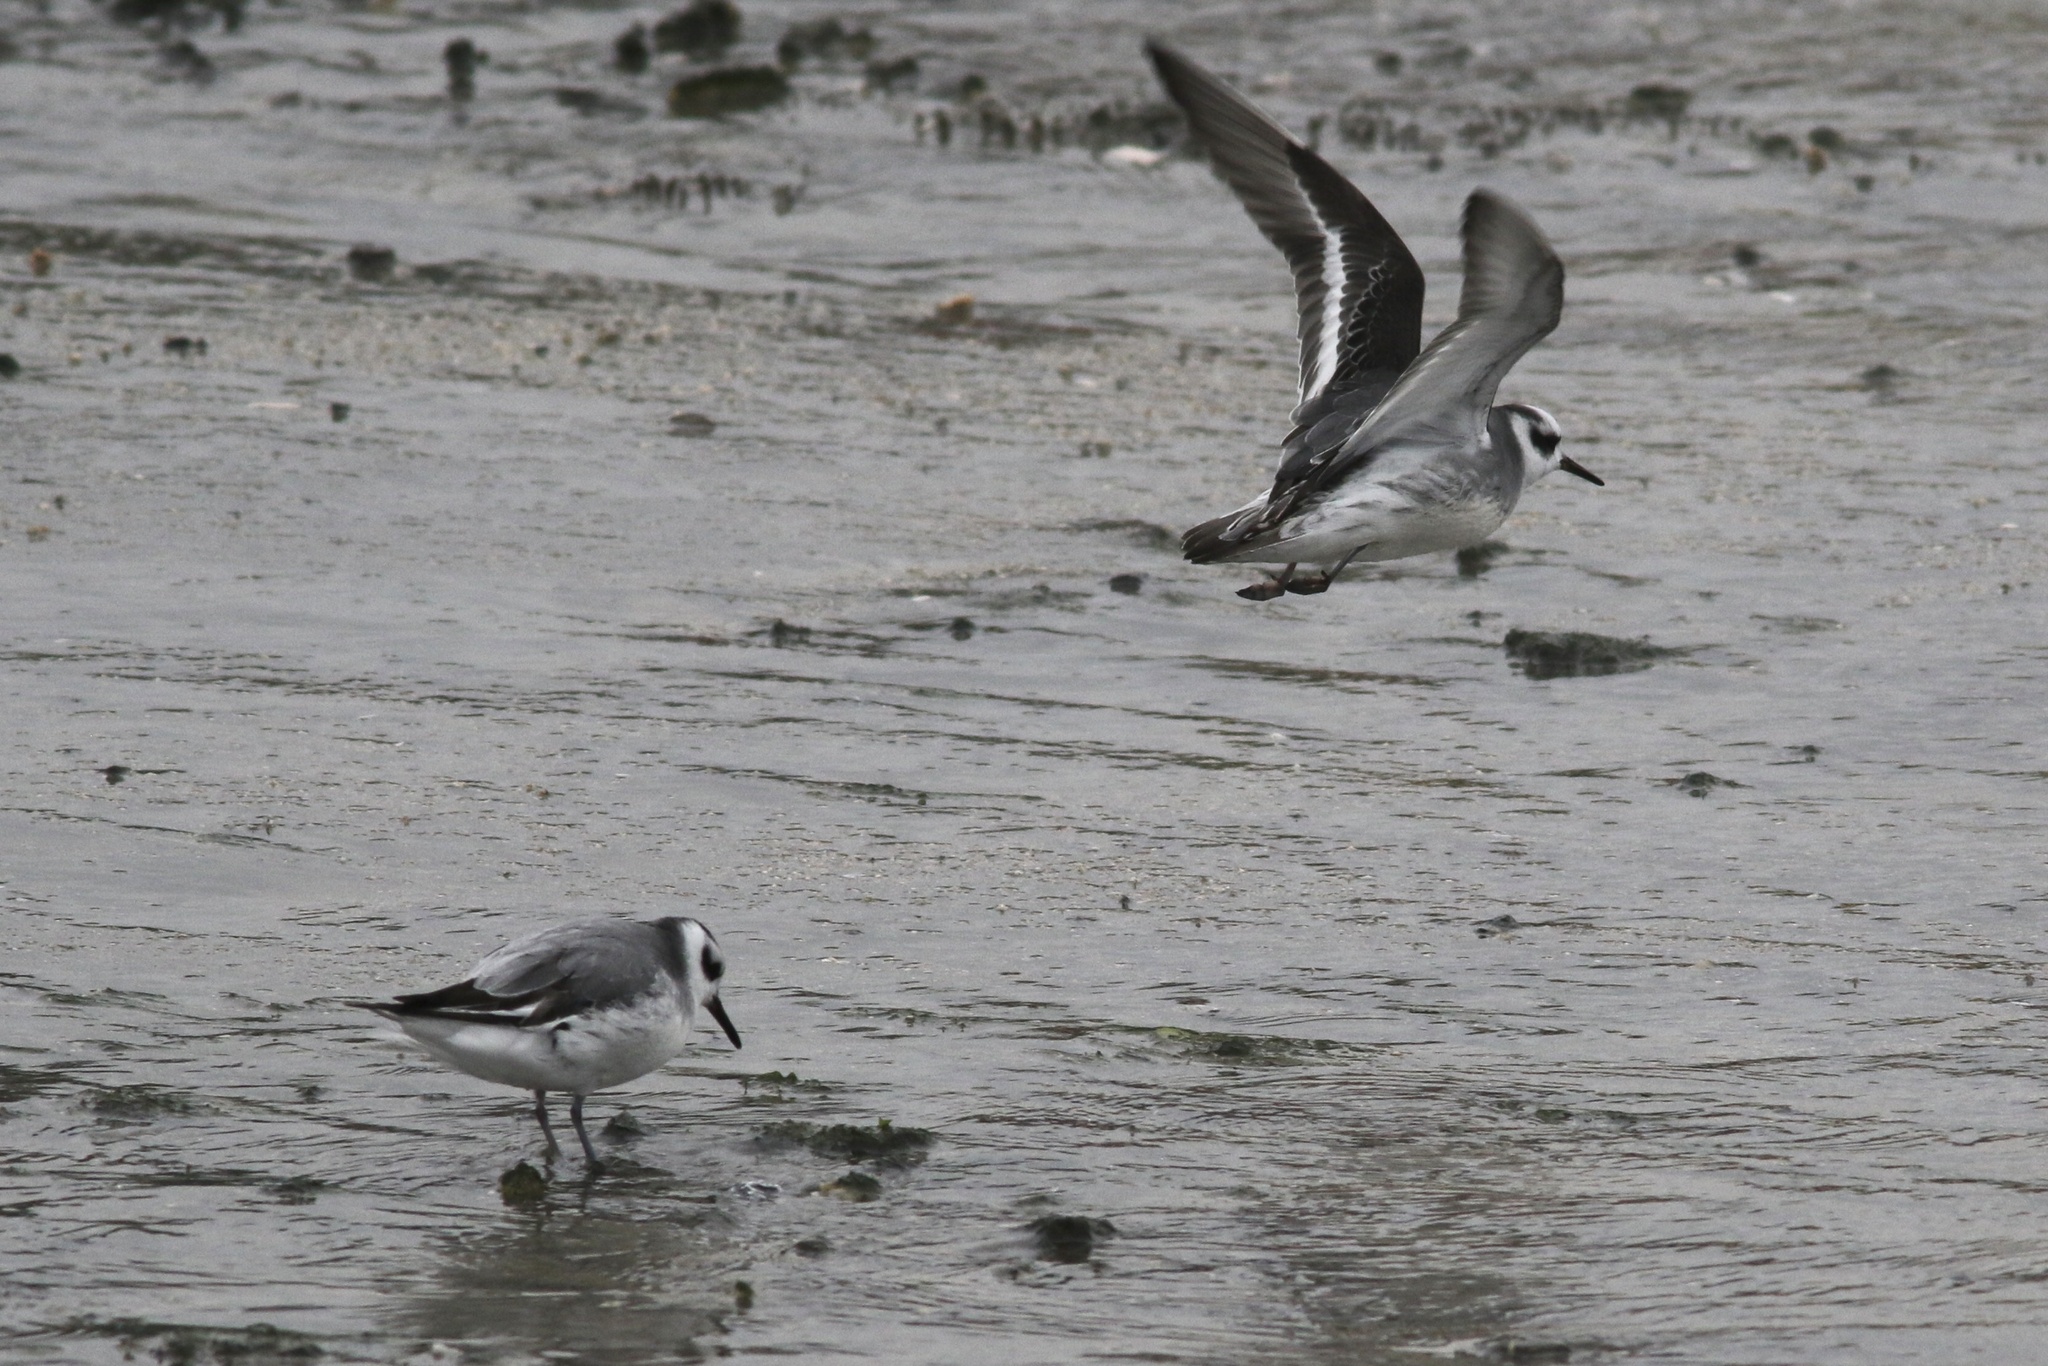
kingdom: Animalia
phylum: Chordata
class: Aves
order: Charadriiformes
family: Scolopacidae
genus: Phalaropus
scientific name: Phalaropus fulicarius
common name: Red phalarope
